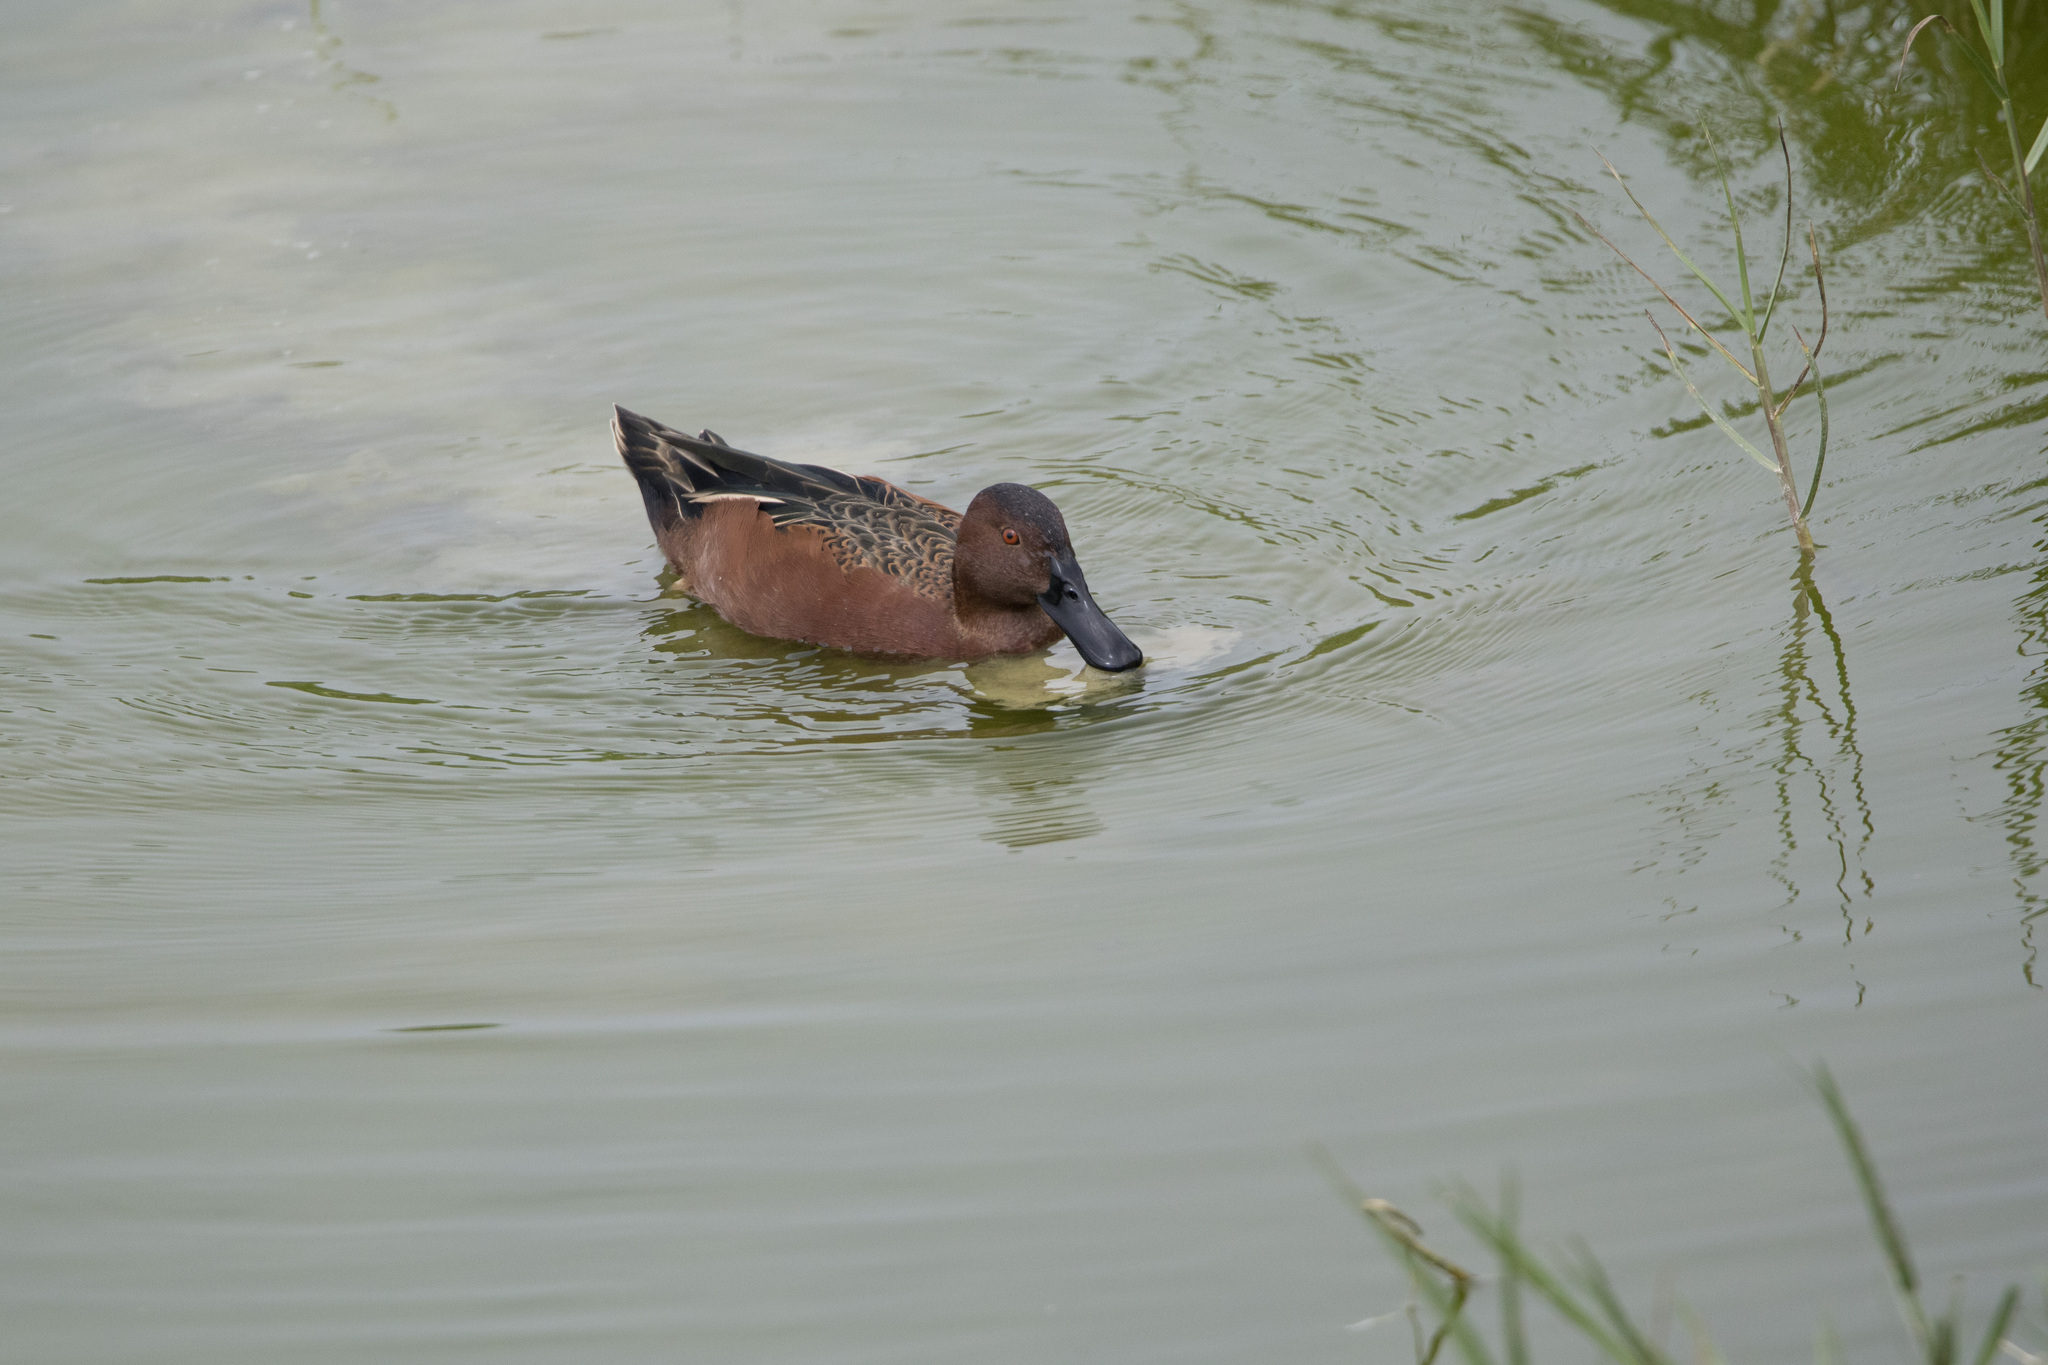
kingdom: Animalia
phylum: Chordata
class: Aves
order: Anseriformes
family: Anatidae
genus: Spatula
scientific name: Spatula cyanoptera
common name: Cinnamon teal
